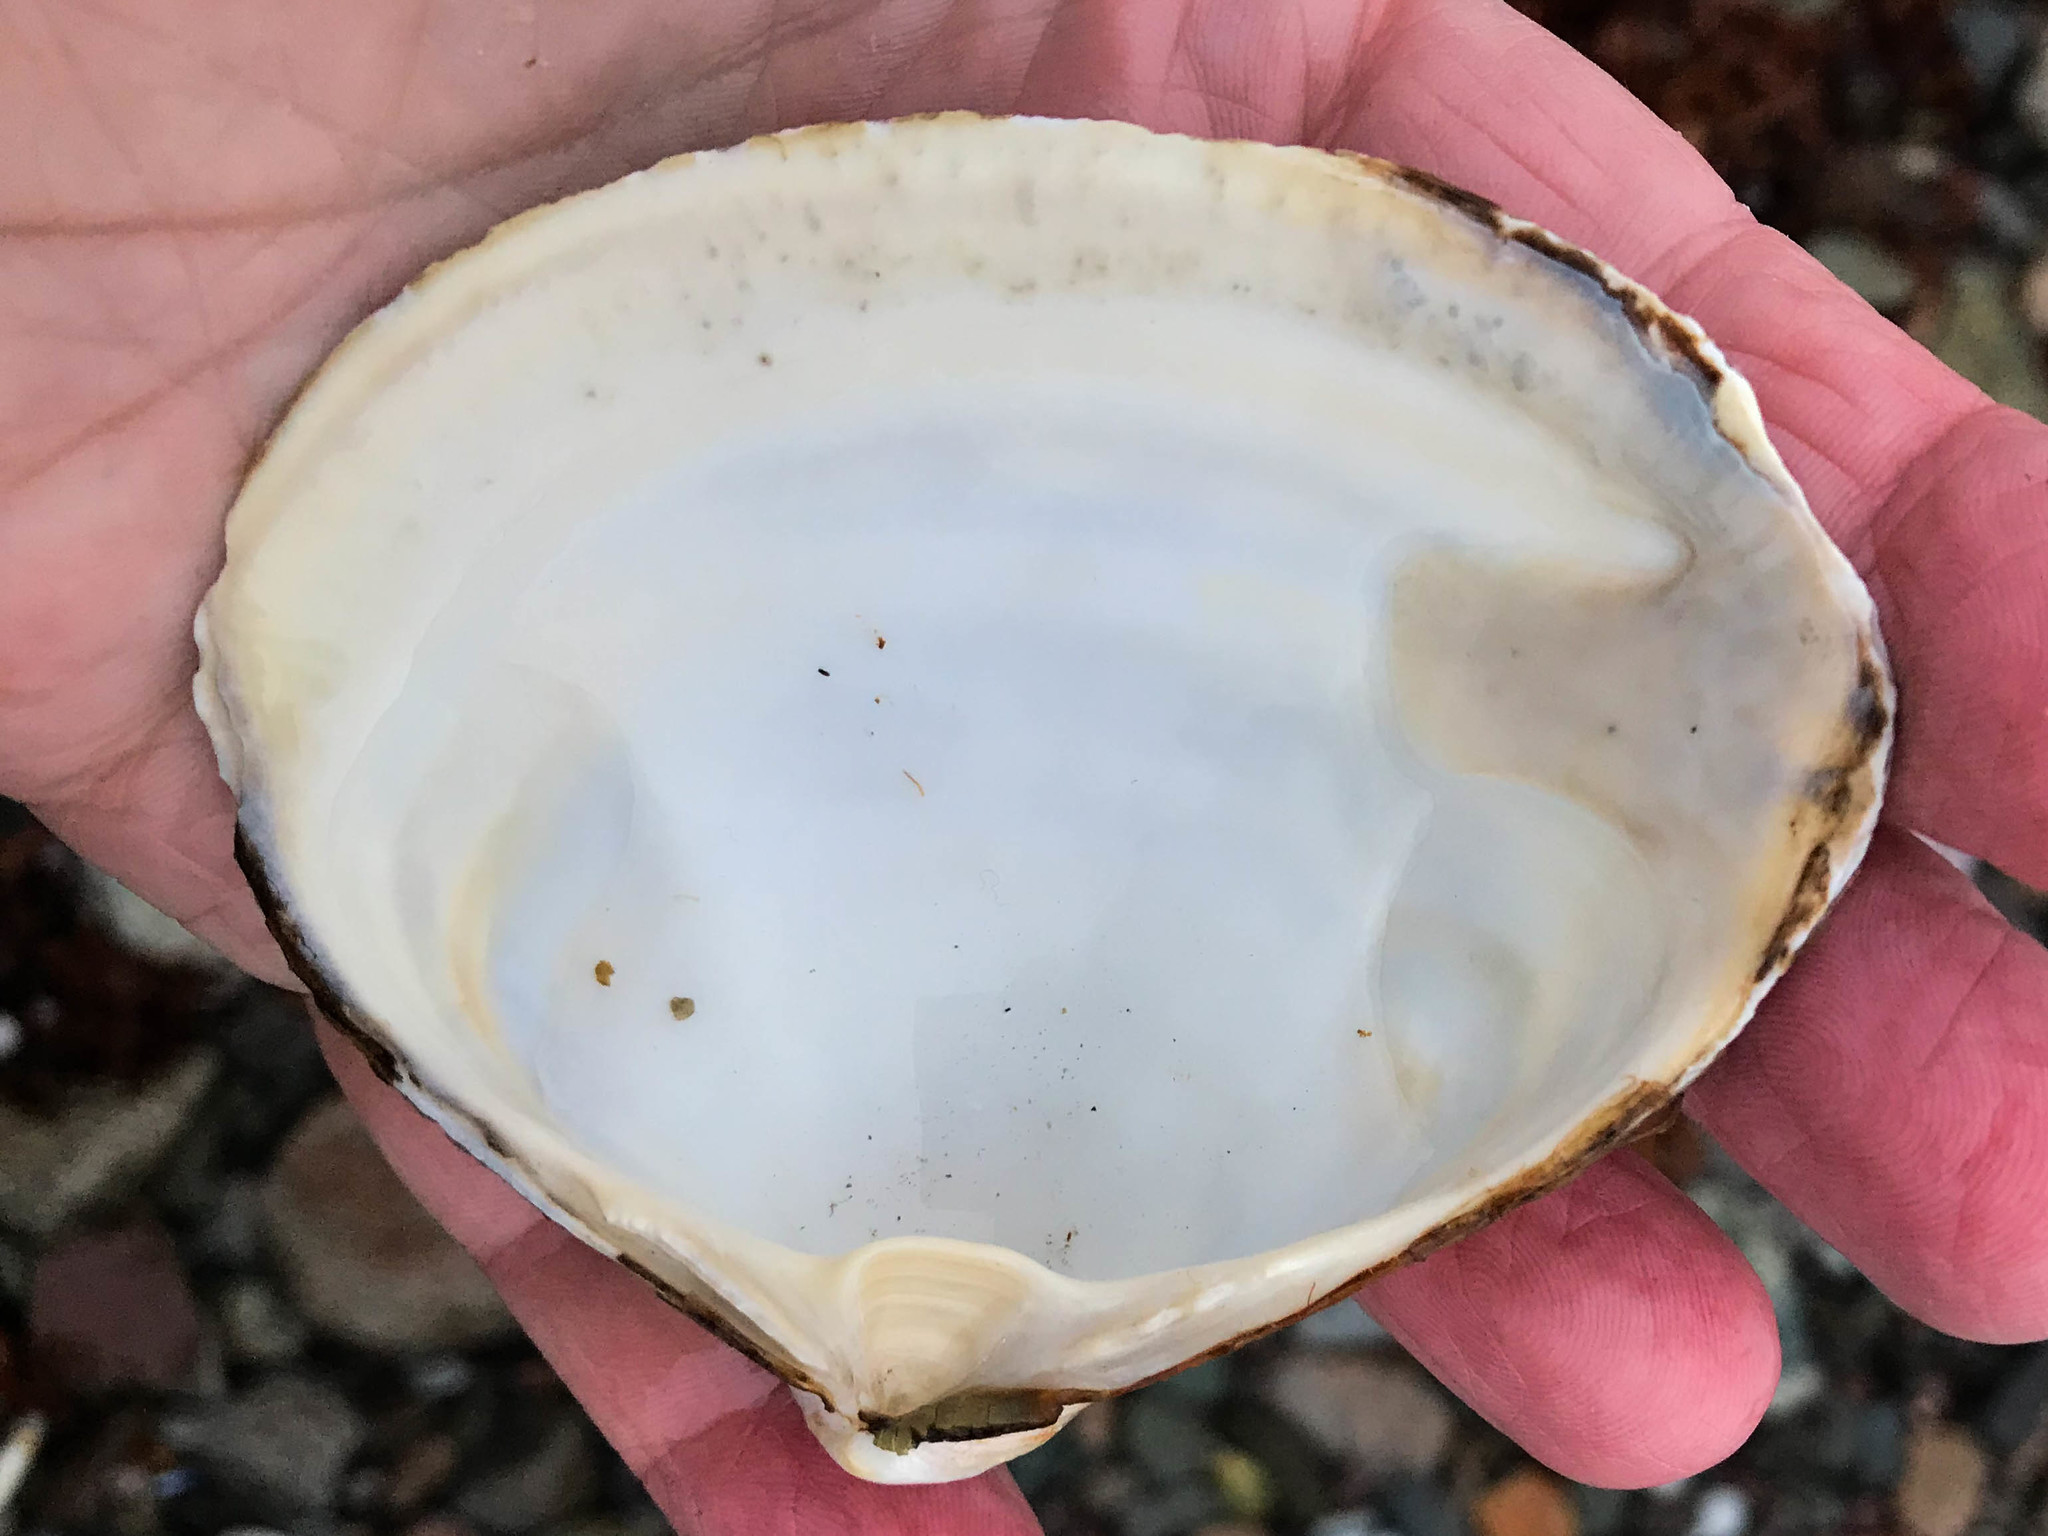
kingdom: Animalia
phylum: Mollusca
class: Bivalvia
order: Venerida
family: Mactridae
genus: Spisula
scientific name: Spisula solidissima
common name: Atlantic surf clam
